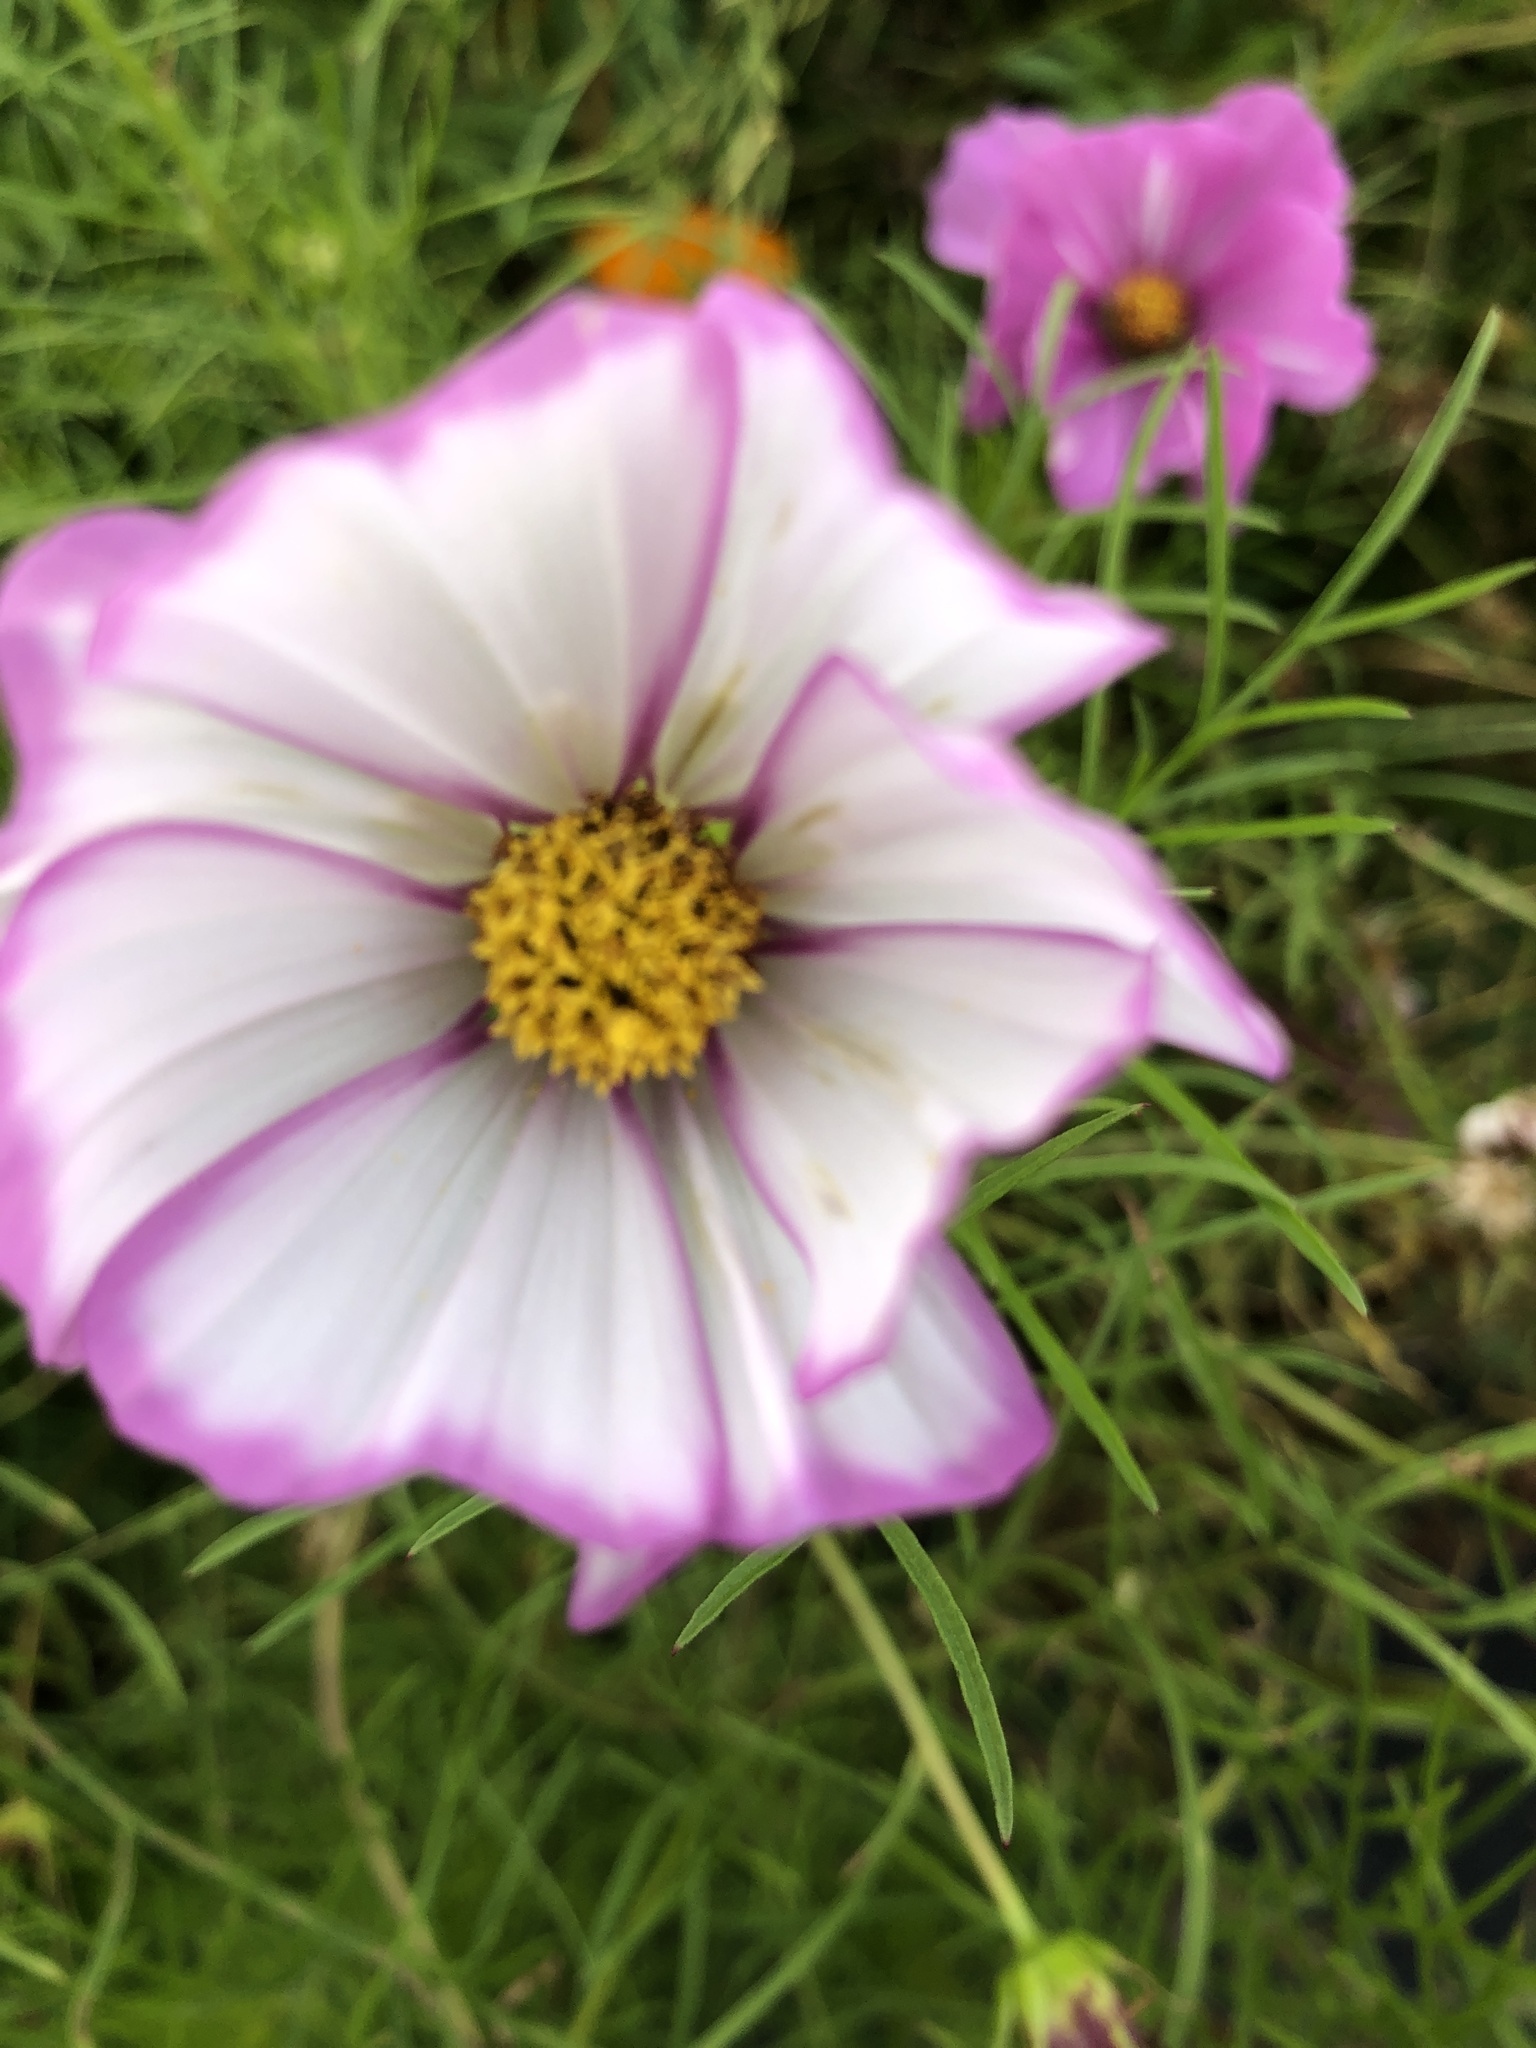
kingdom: Plantae
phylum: Tracheophyta
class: Magnoliopsida
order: Asterales
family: Asteraceae
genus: Cosmos
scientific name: Cosmos bipinnatus
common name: Garden cosmos
